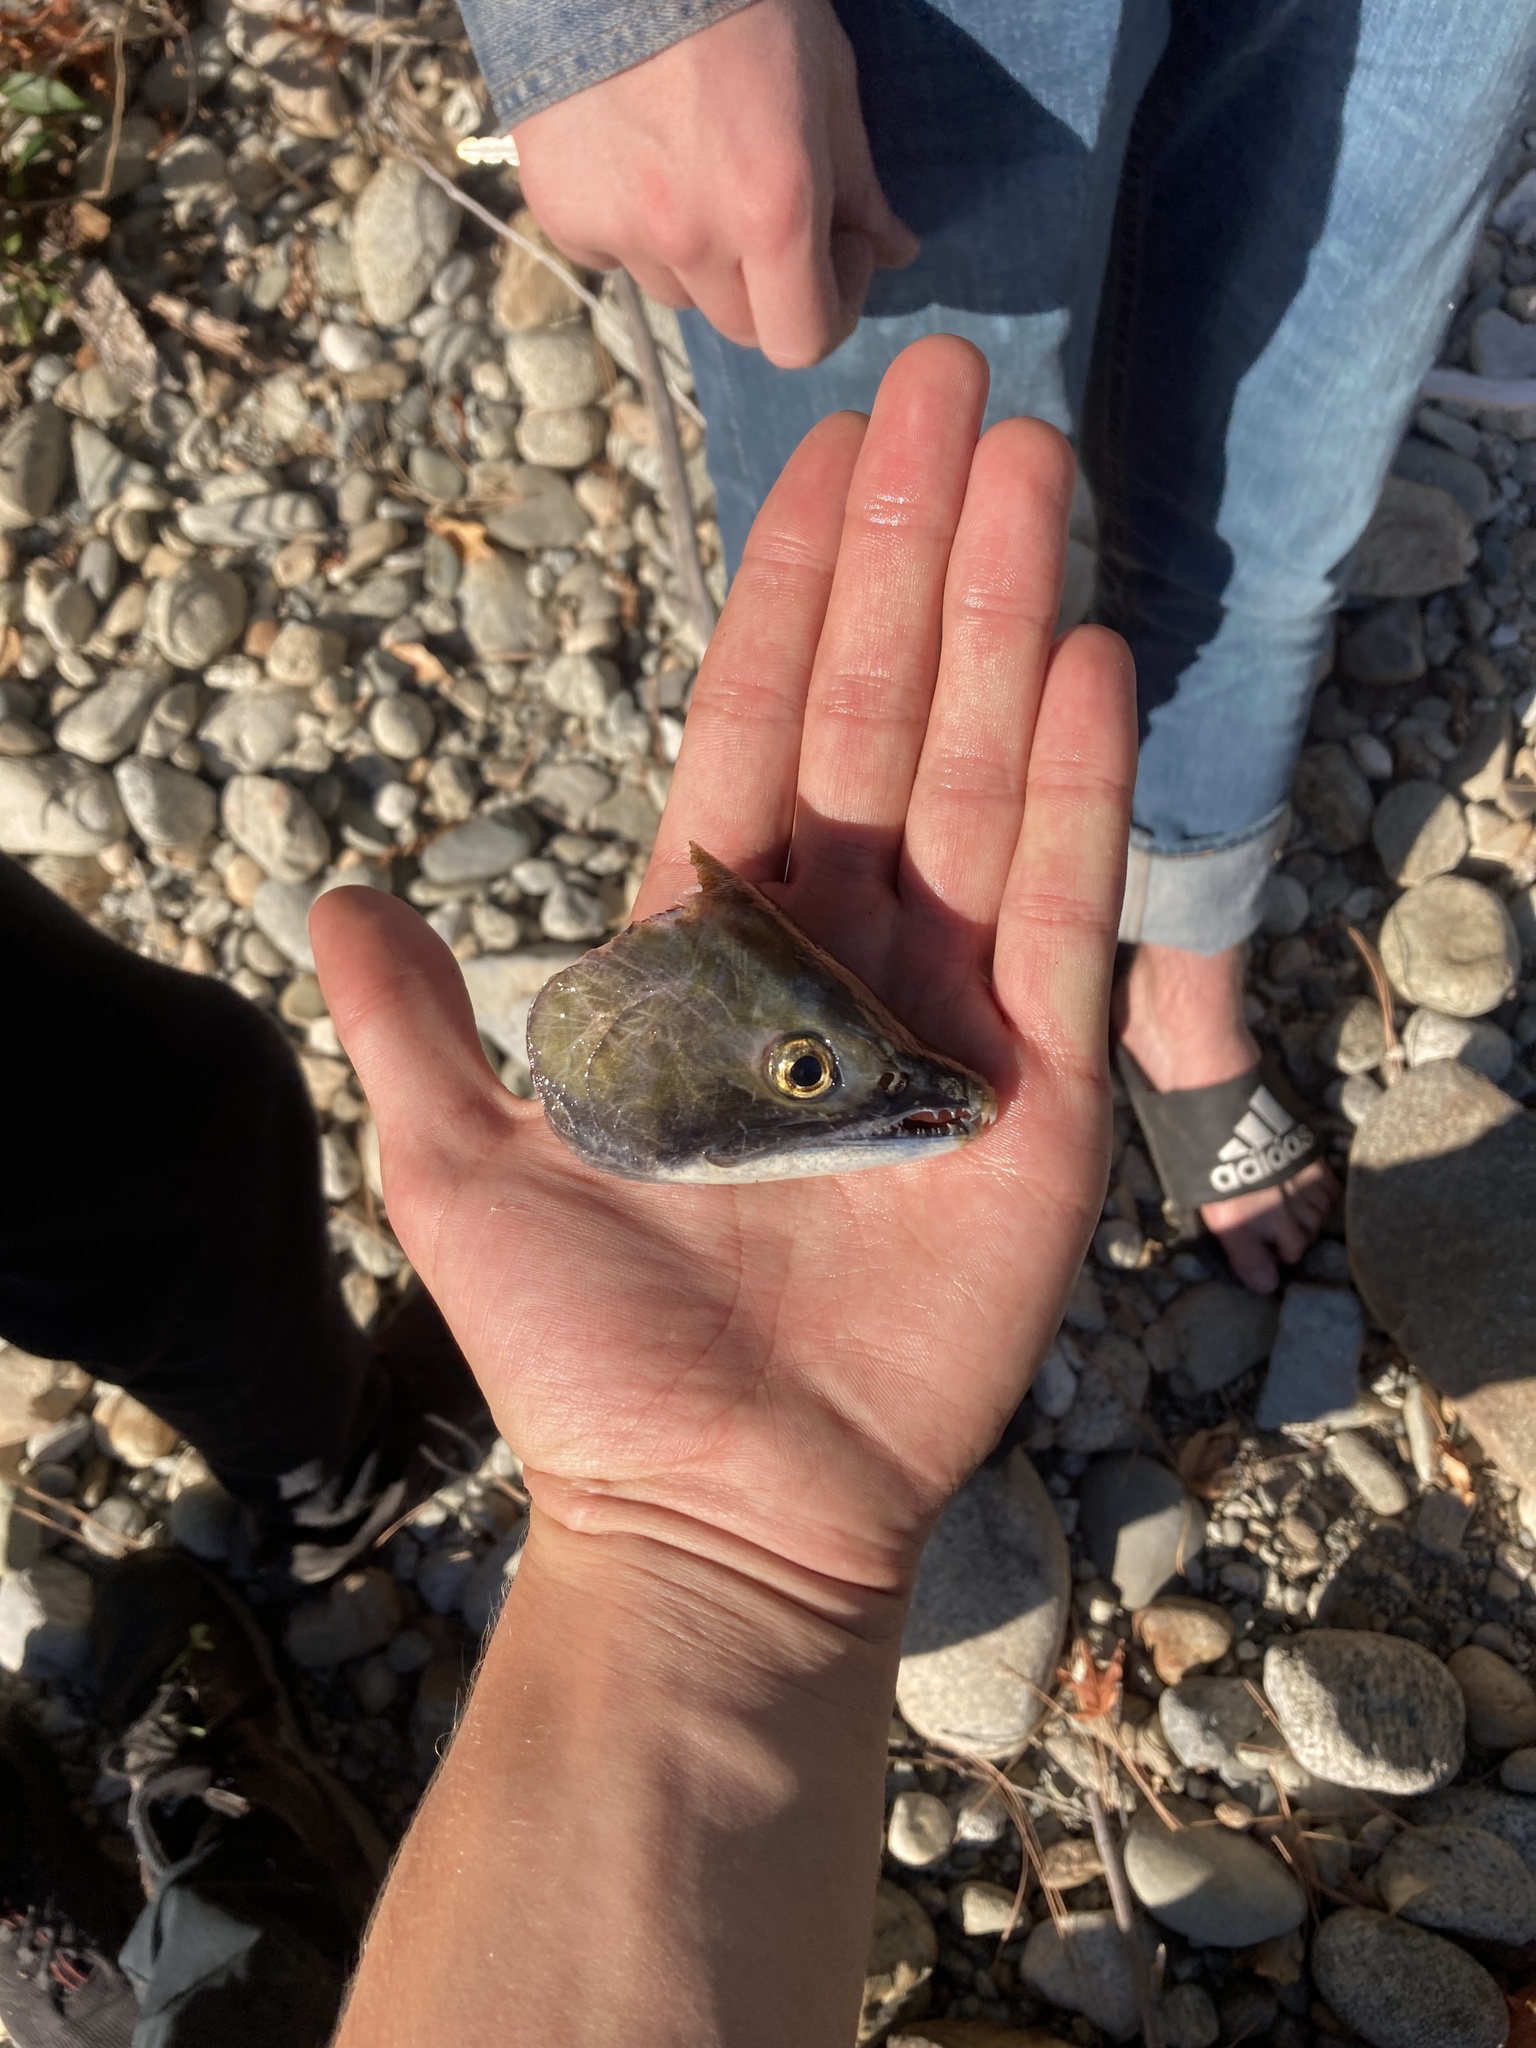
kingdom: Animalia
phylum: Chordata
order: Salmoniformes
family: Salmonidae
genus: Oncorhynchus
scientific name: Oncorhynchus nerka
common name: Sockeye salmon
